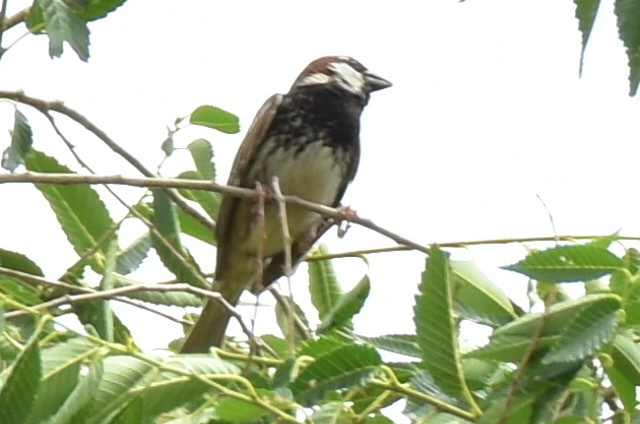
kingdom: Animalia
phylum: Chordata
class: Aves
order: Passeriformes
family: Passeridae
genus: Passer
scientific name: Passer hispaniolensis
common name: Spanish sparrow
